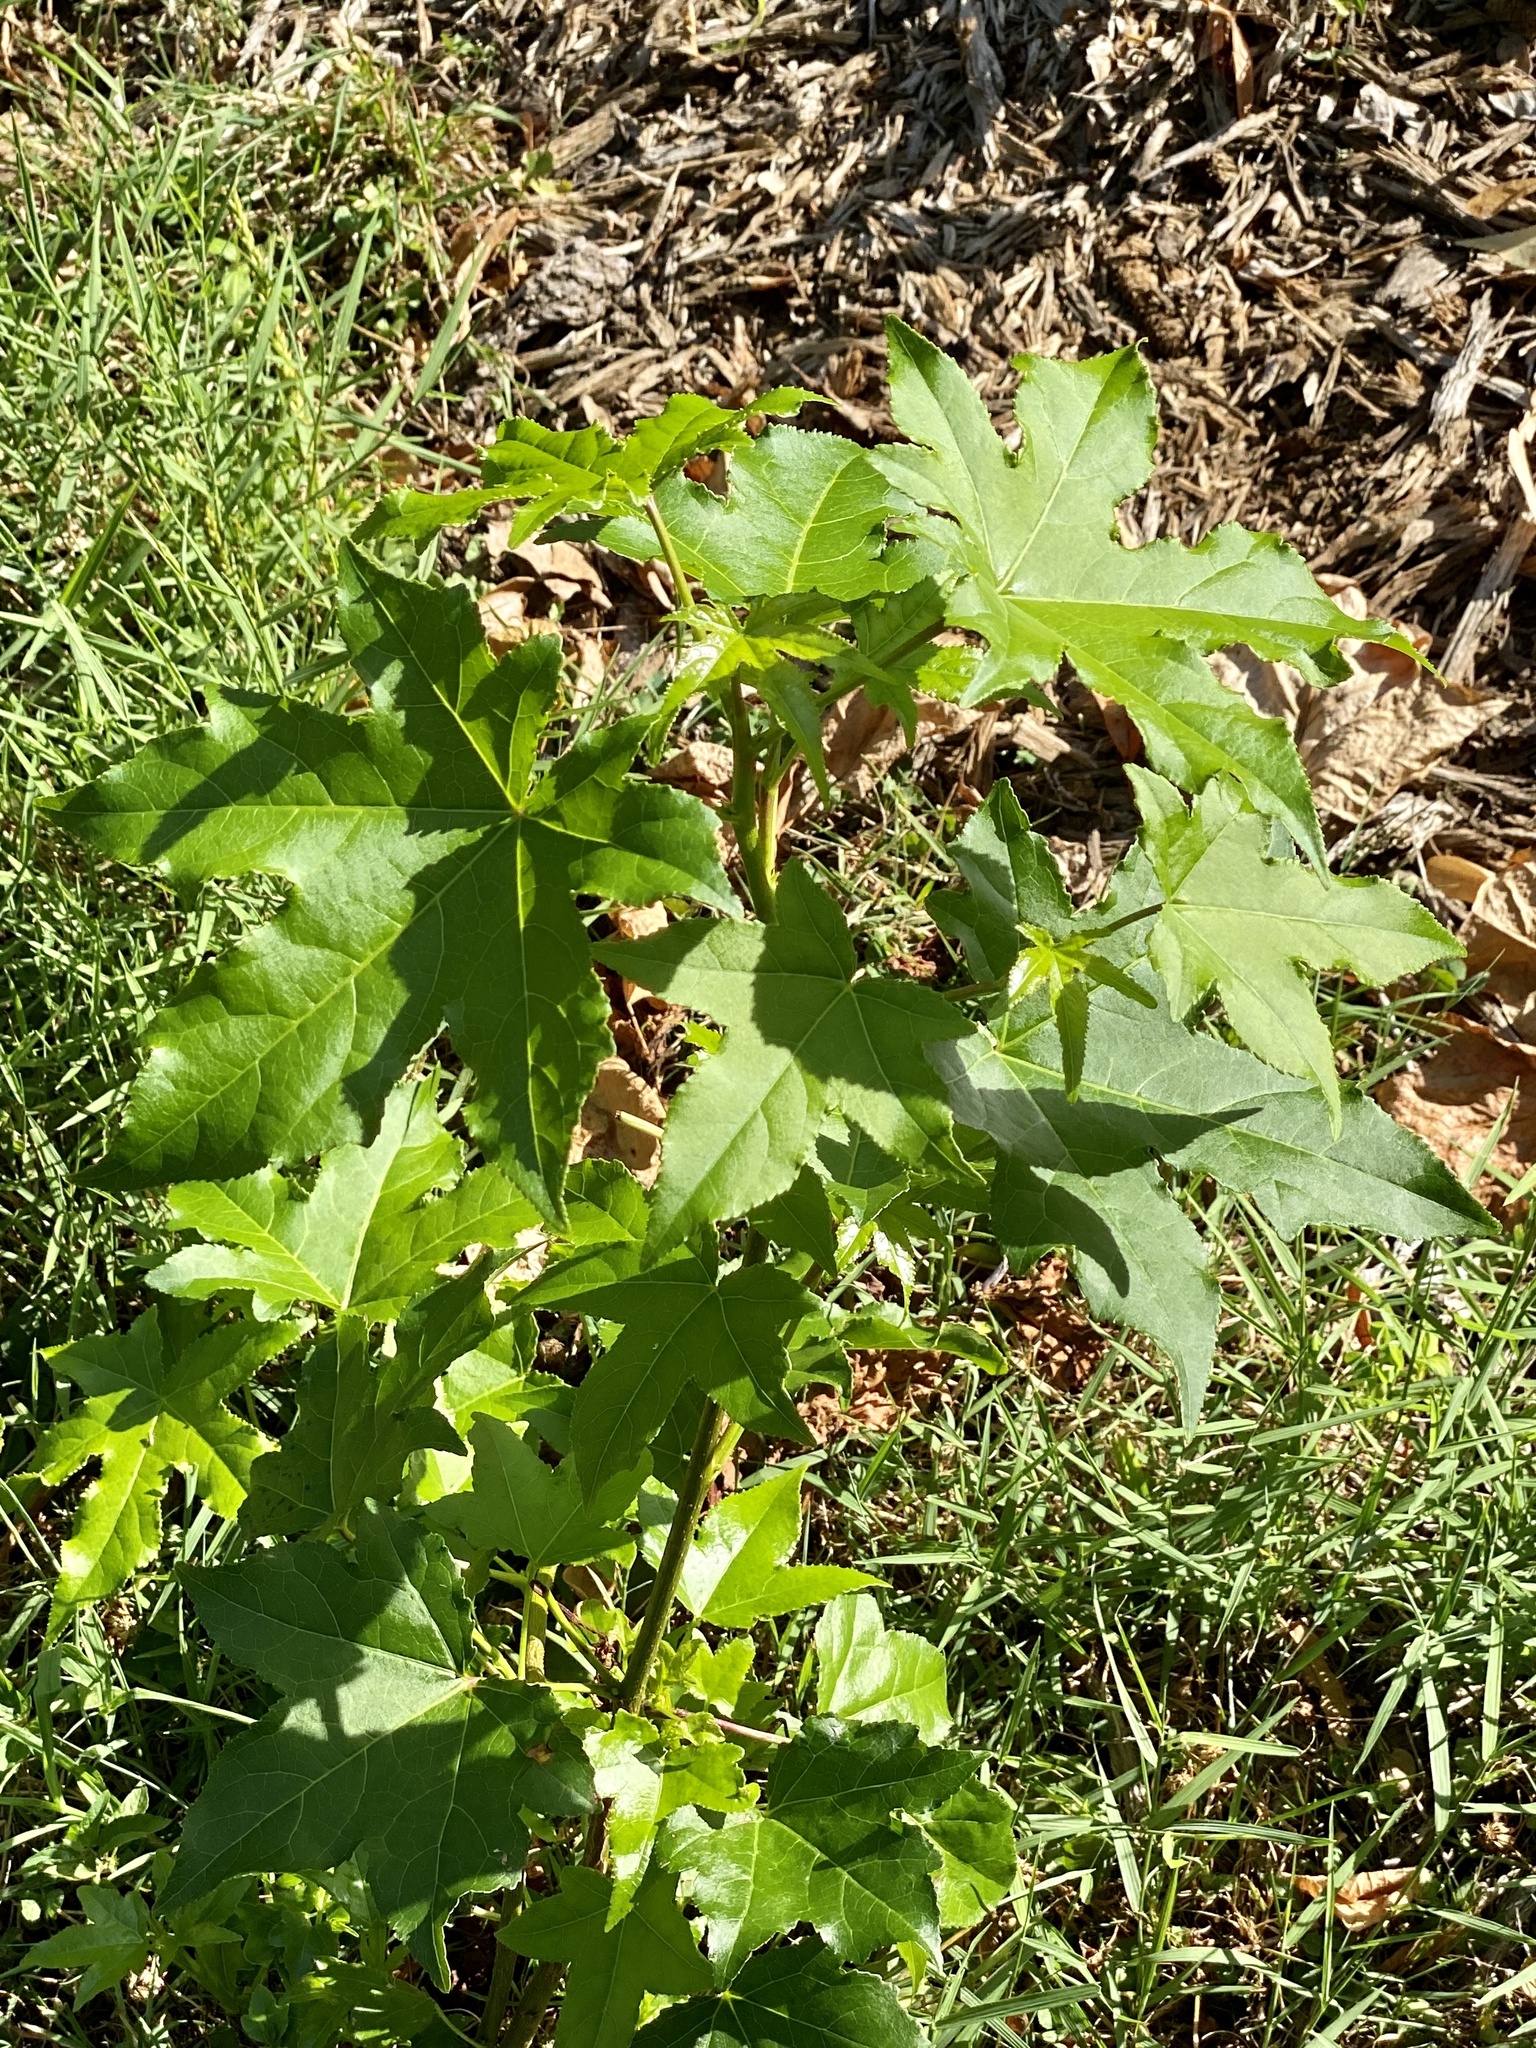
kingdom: Plantae
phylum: Tracheophyta
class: Magnoliopsida
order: Saxifragales
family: Altingiaceae
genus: Liquidambar
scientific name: Liquidambar styraciflua
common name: Sweet gum
